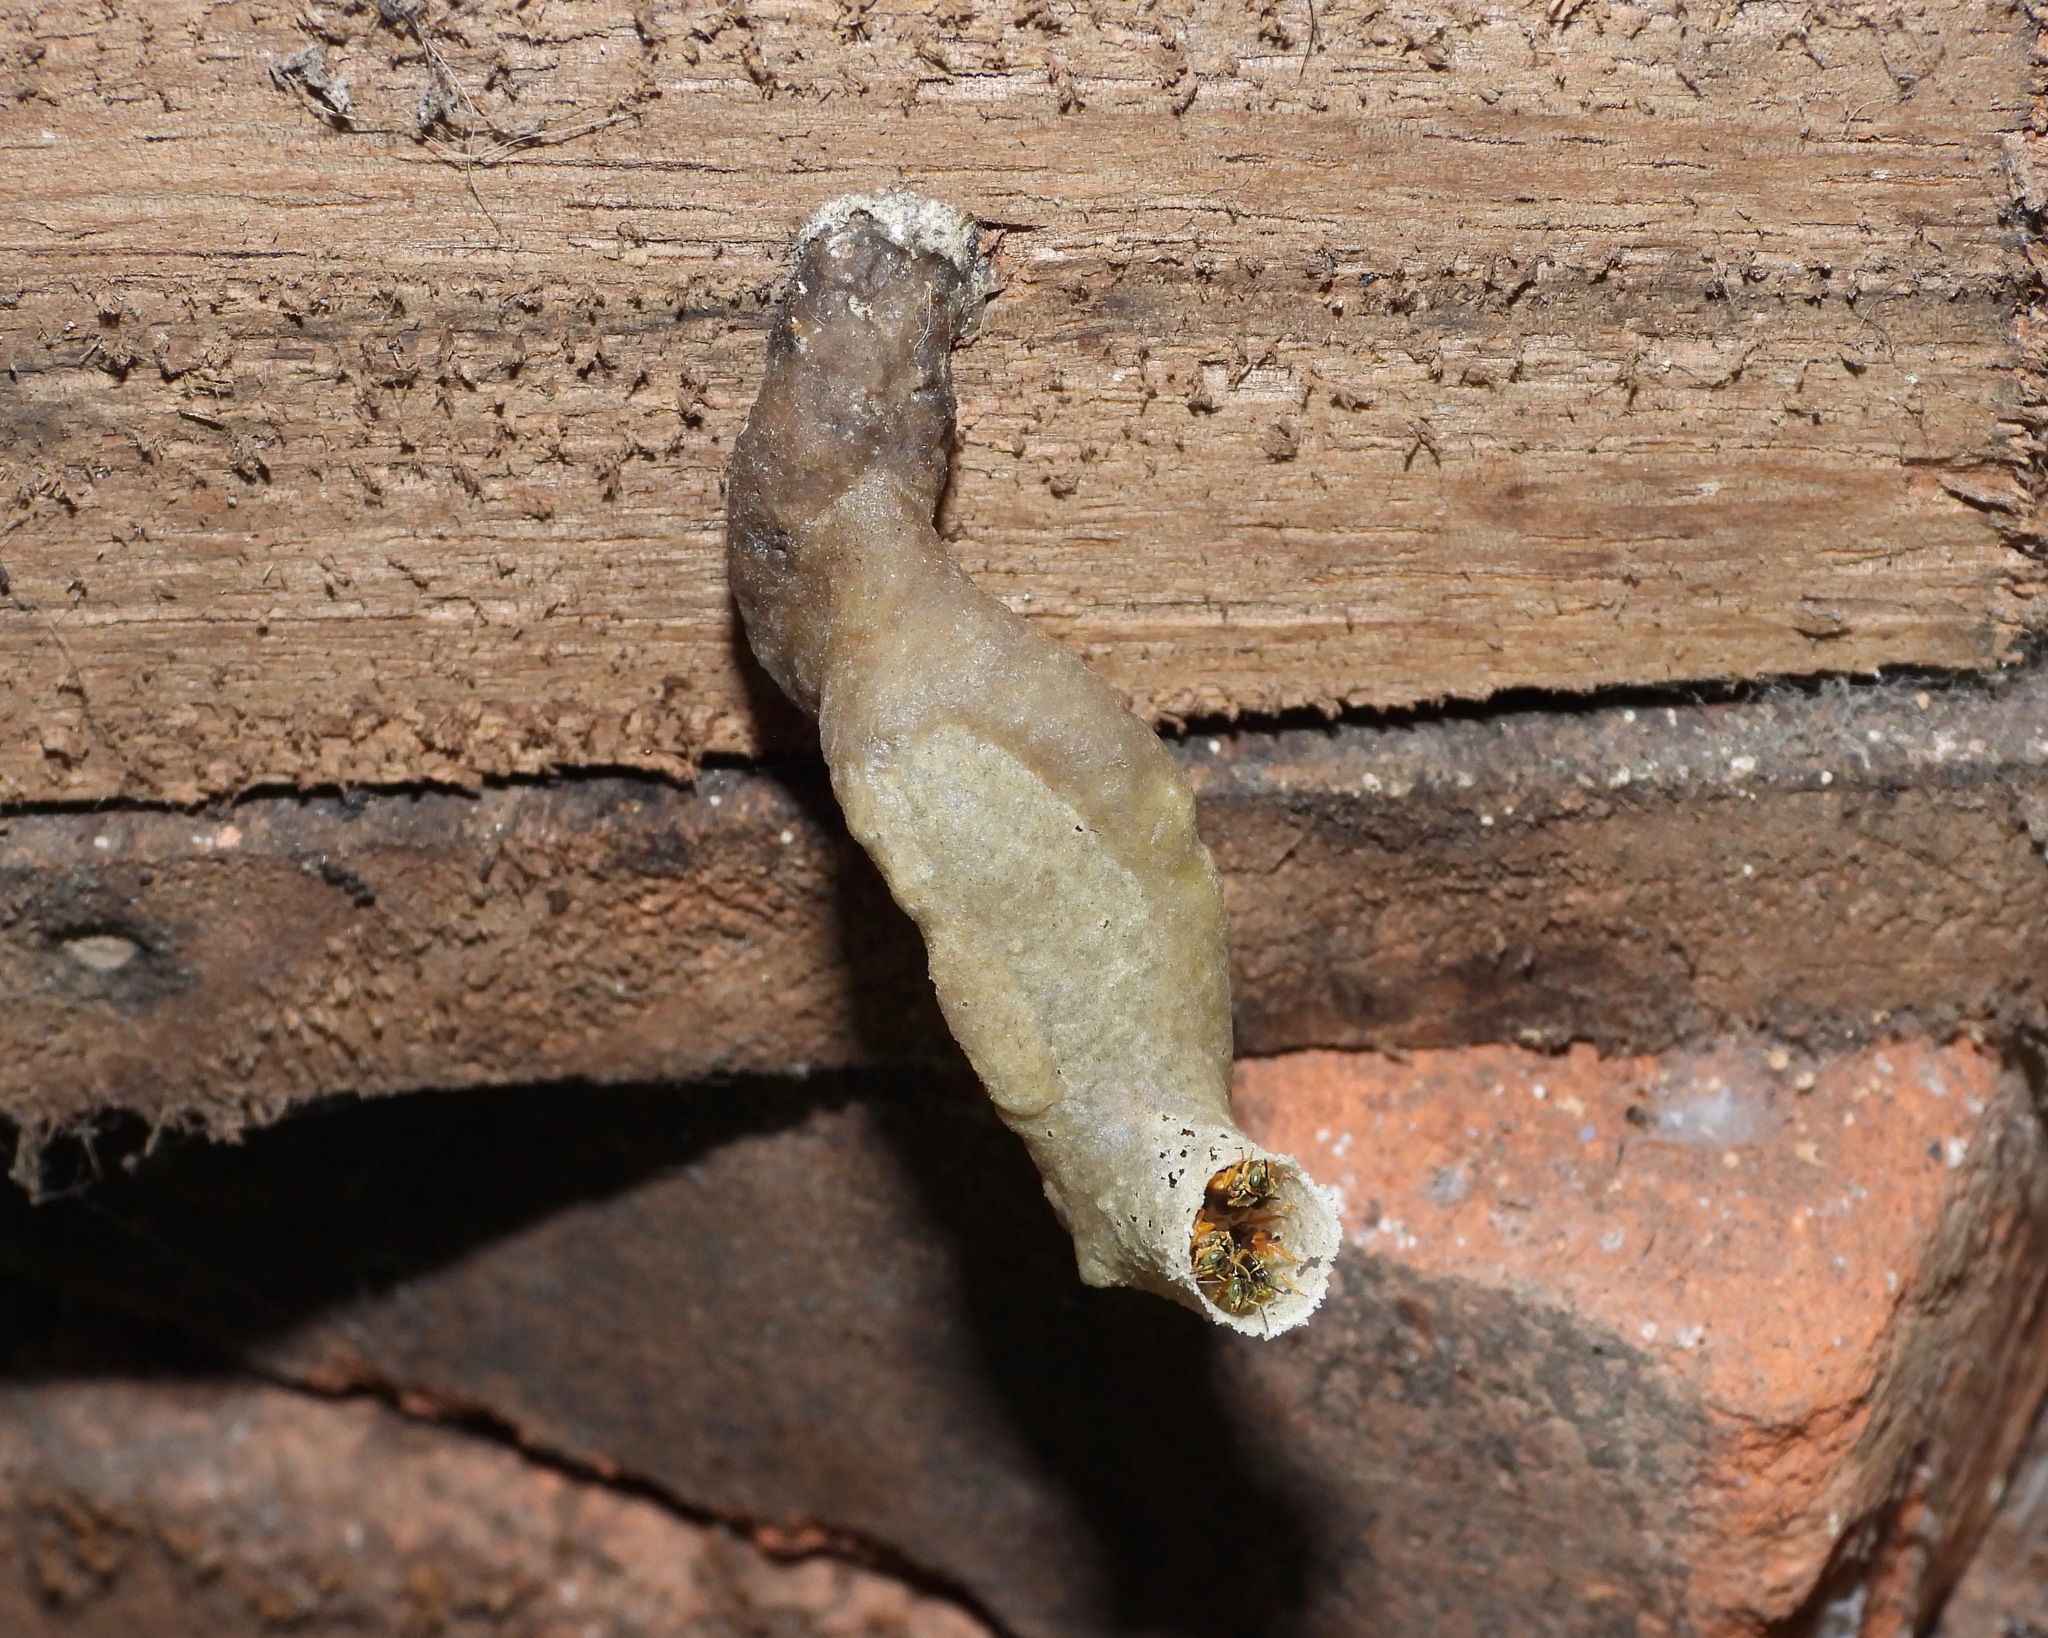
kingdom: Animalia
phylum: Arthropoda
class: Insecta
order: Hymenoptera
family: Apidae
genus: Tetragonisca
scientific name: Tetragonisca angustula
